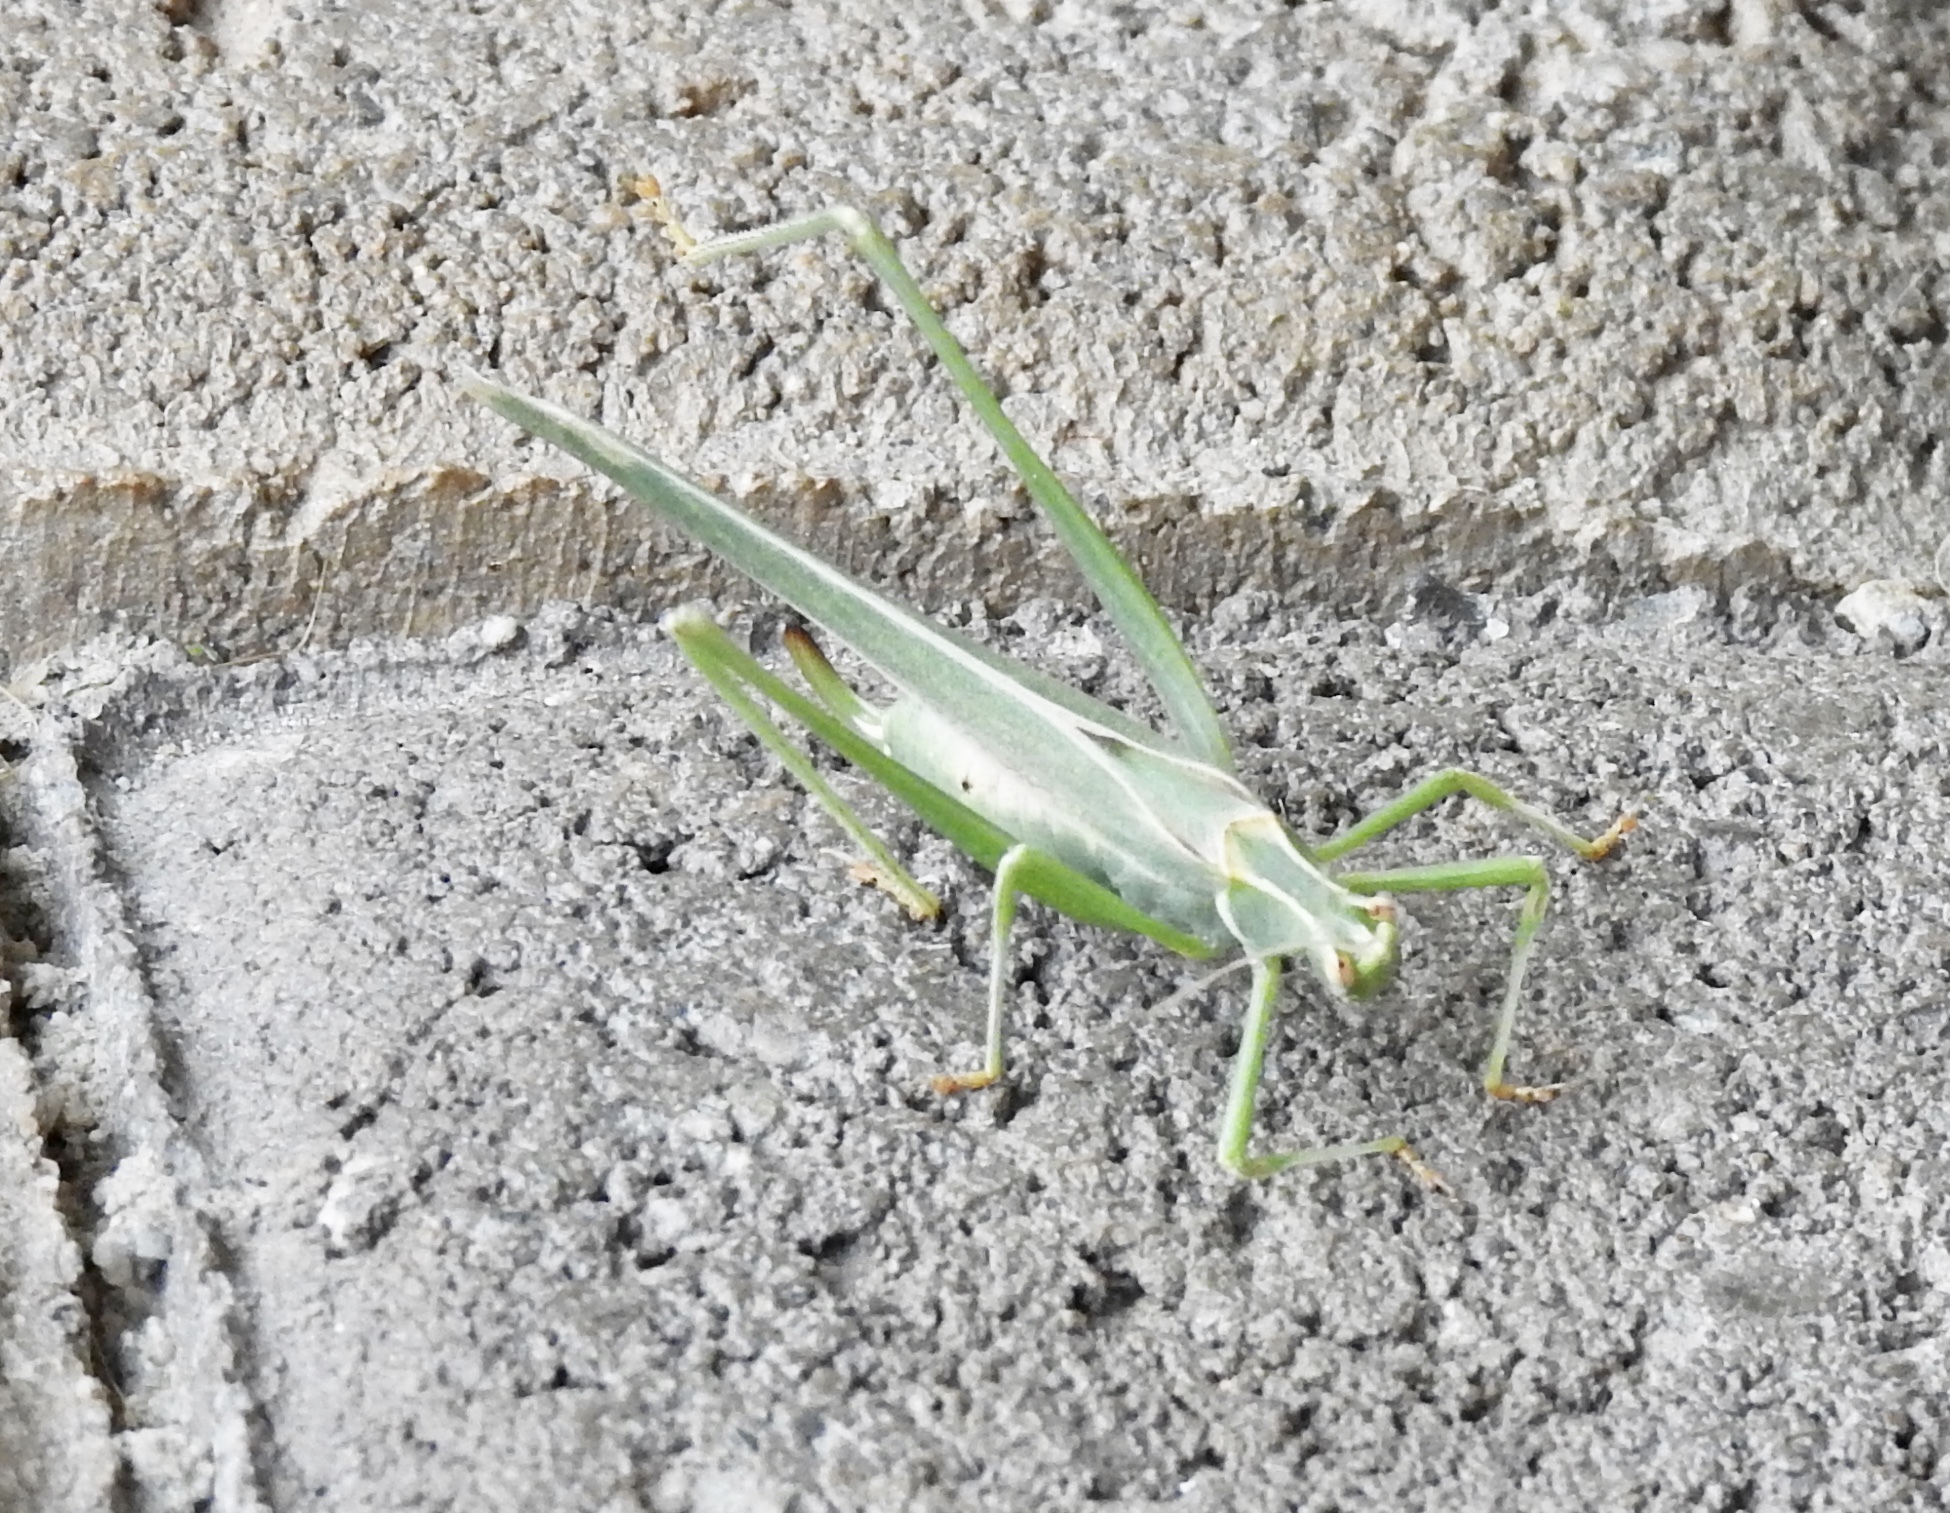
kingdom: Animalia
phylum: Arthropoda
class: Insecta
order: Orthoptera
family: Tettigoniidae
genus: Insara
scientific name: Insara elegans
